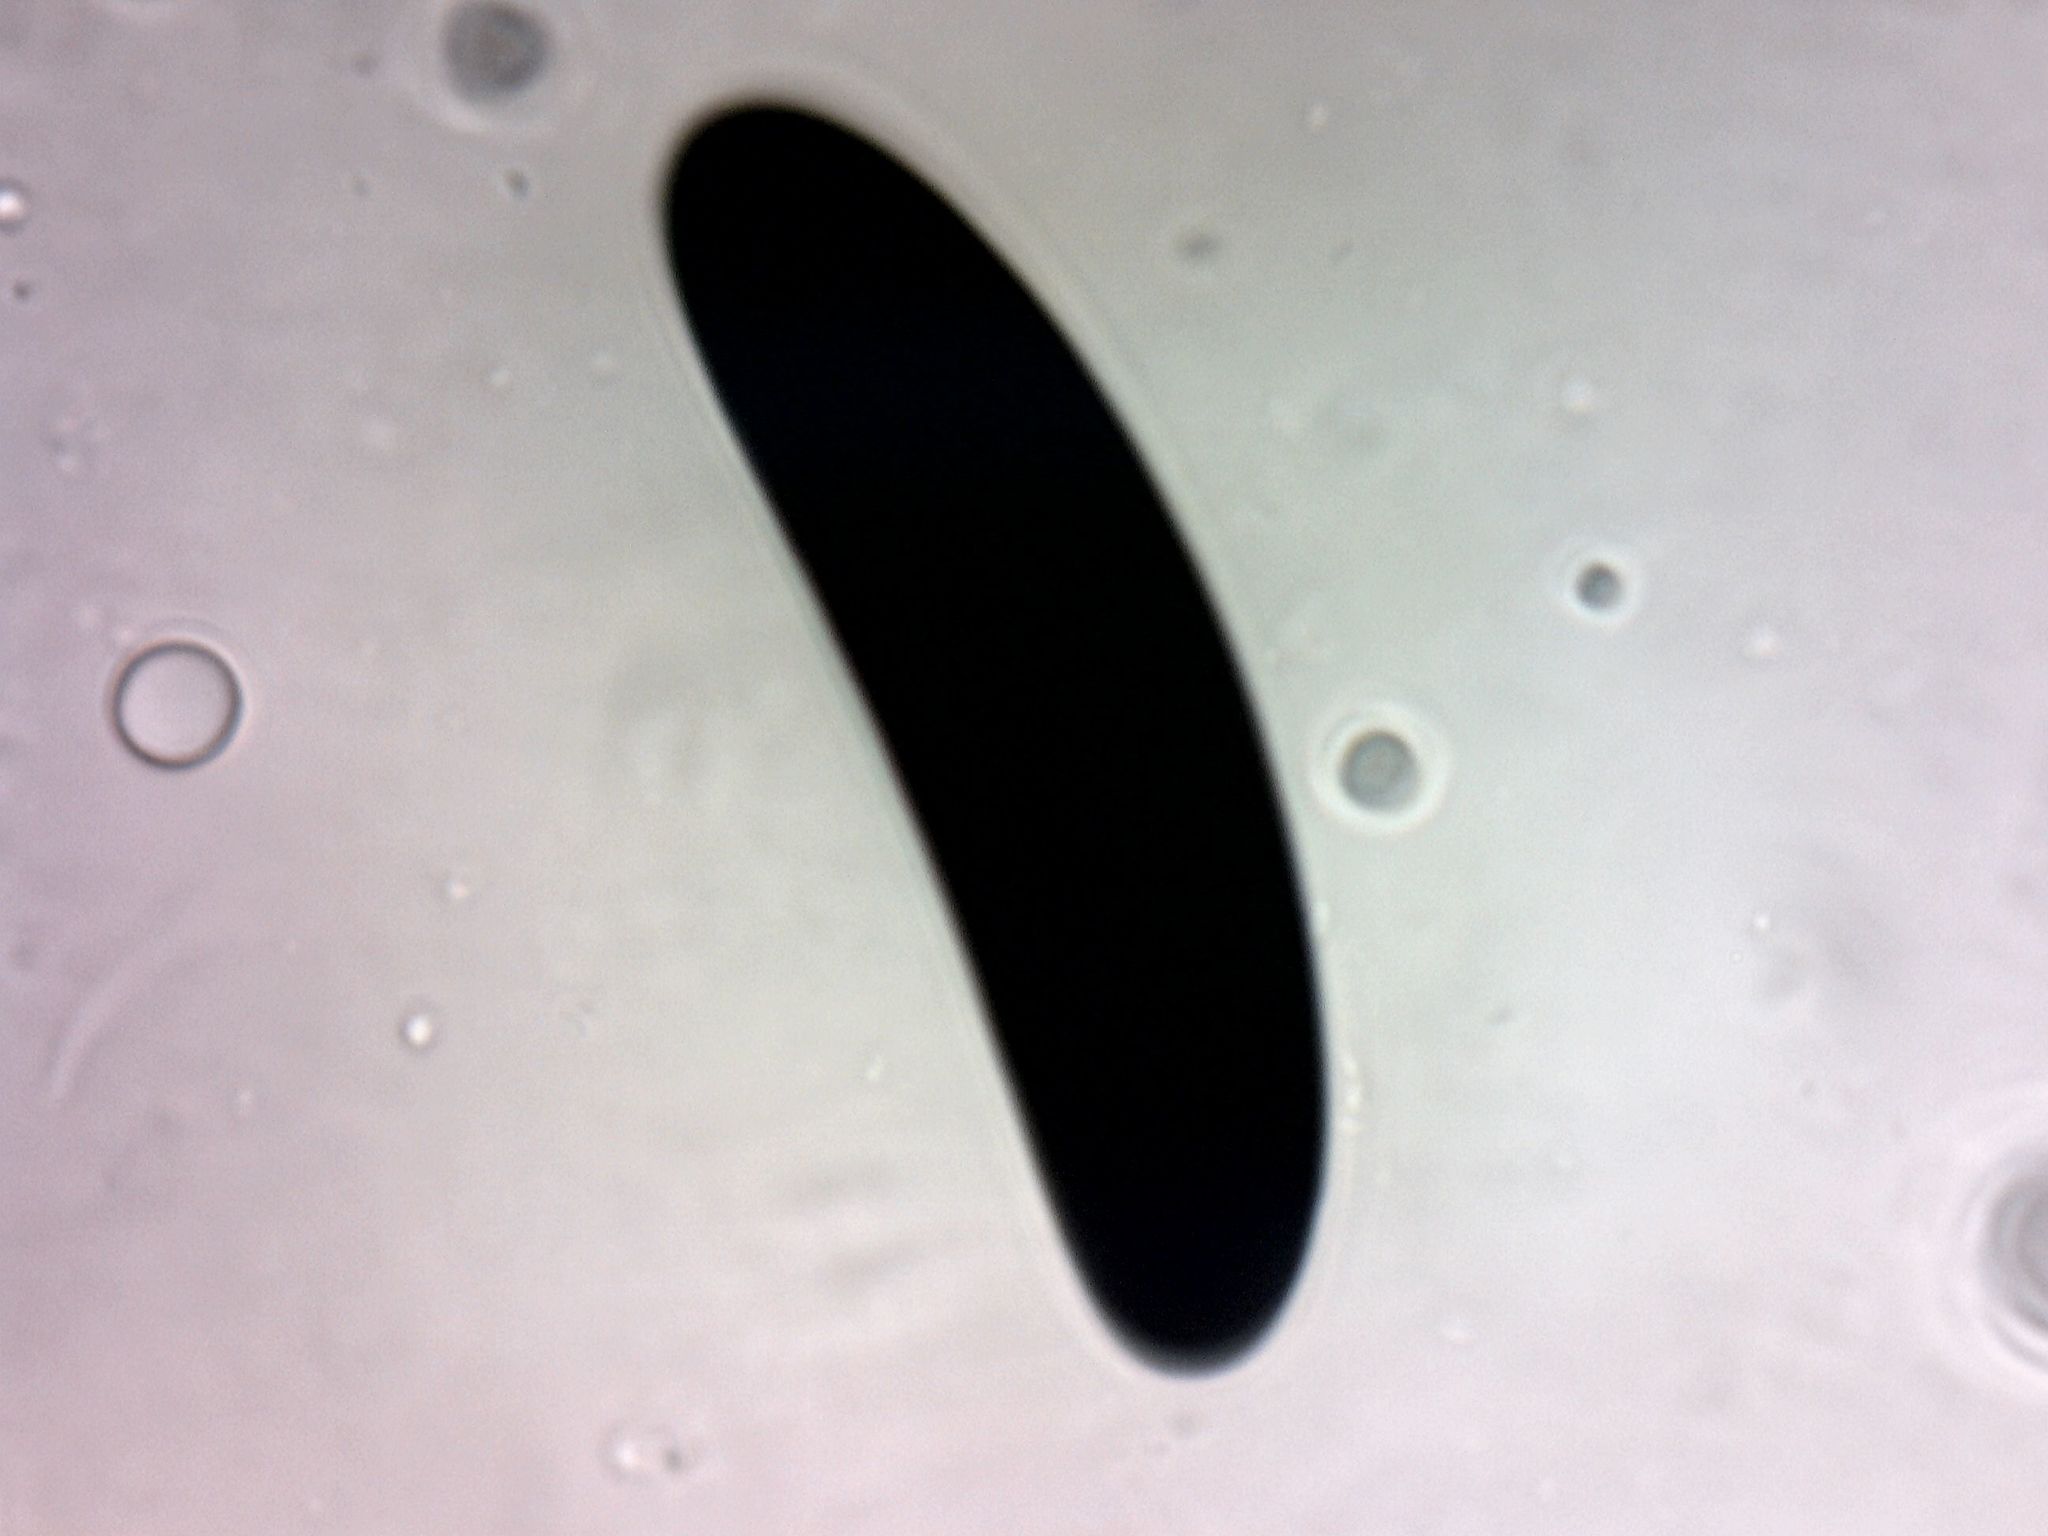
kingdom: Fungi
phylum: Ascomycota
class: Sordariomycetes
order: Xylariales
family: Xylariaceae
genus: Kretzschmaria
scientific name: Kretzschmaria macrosperma
